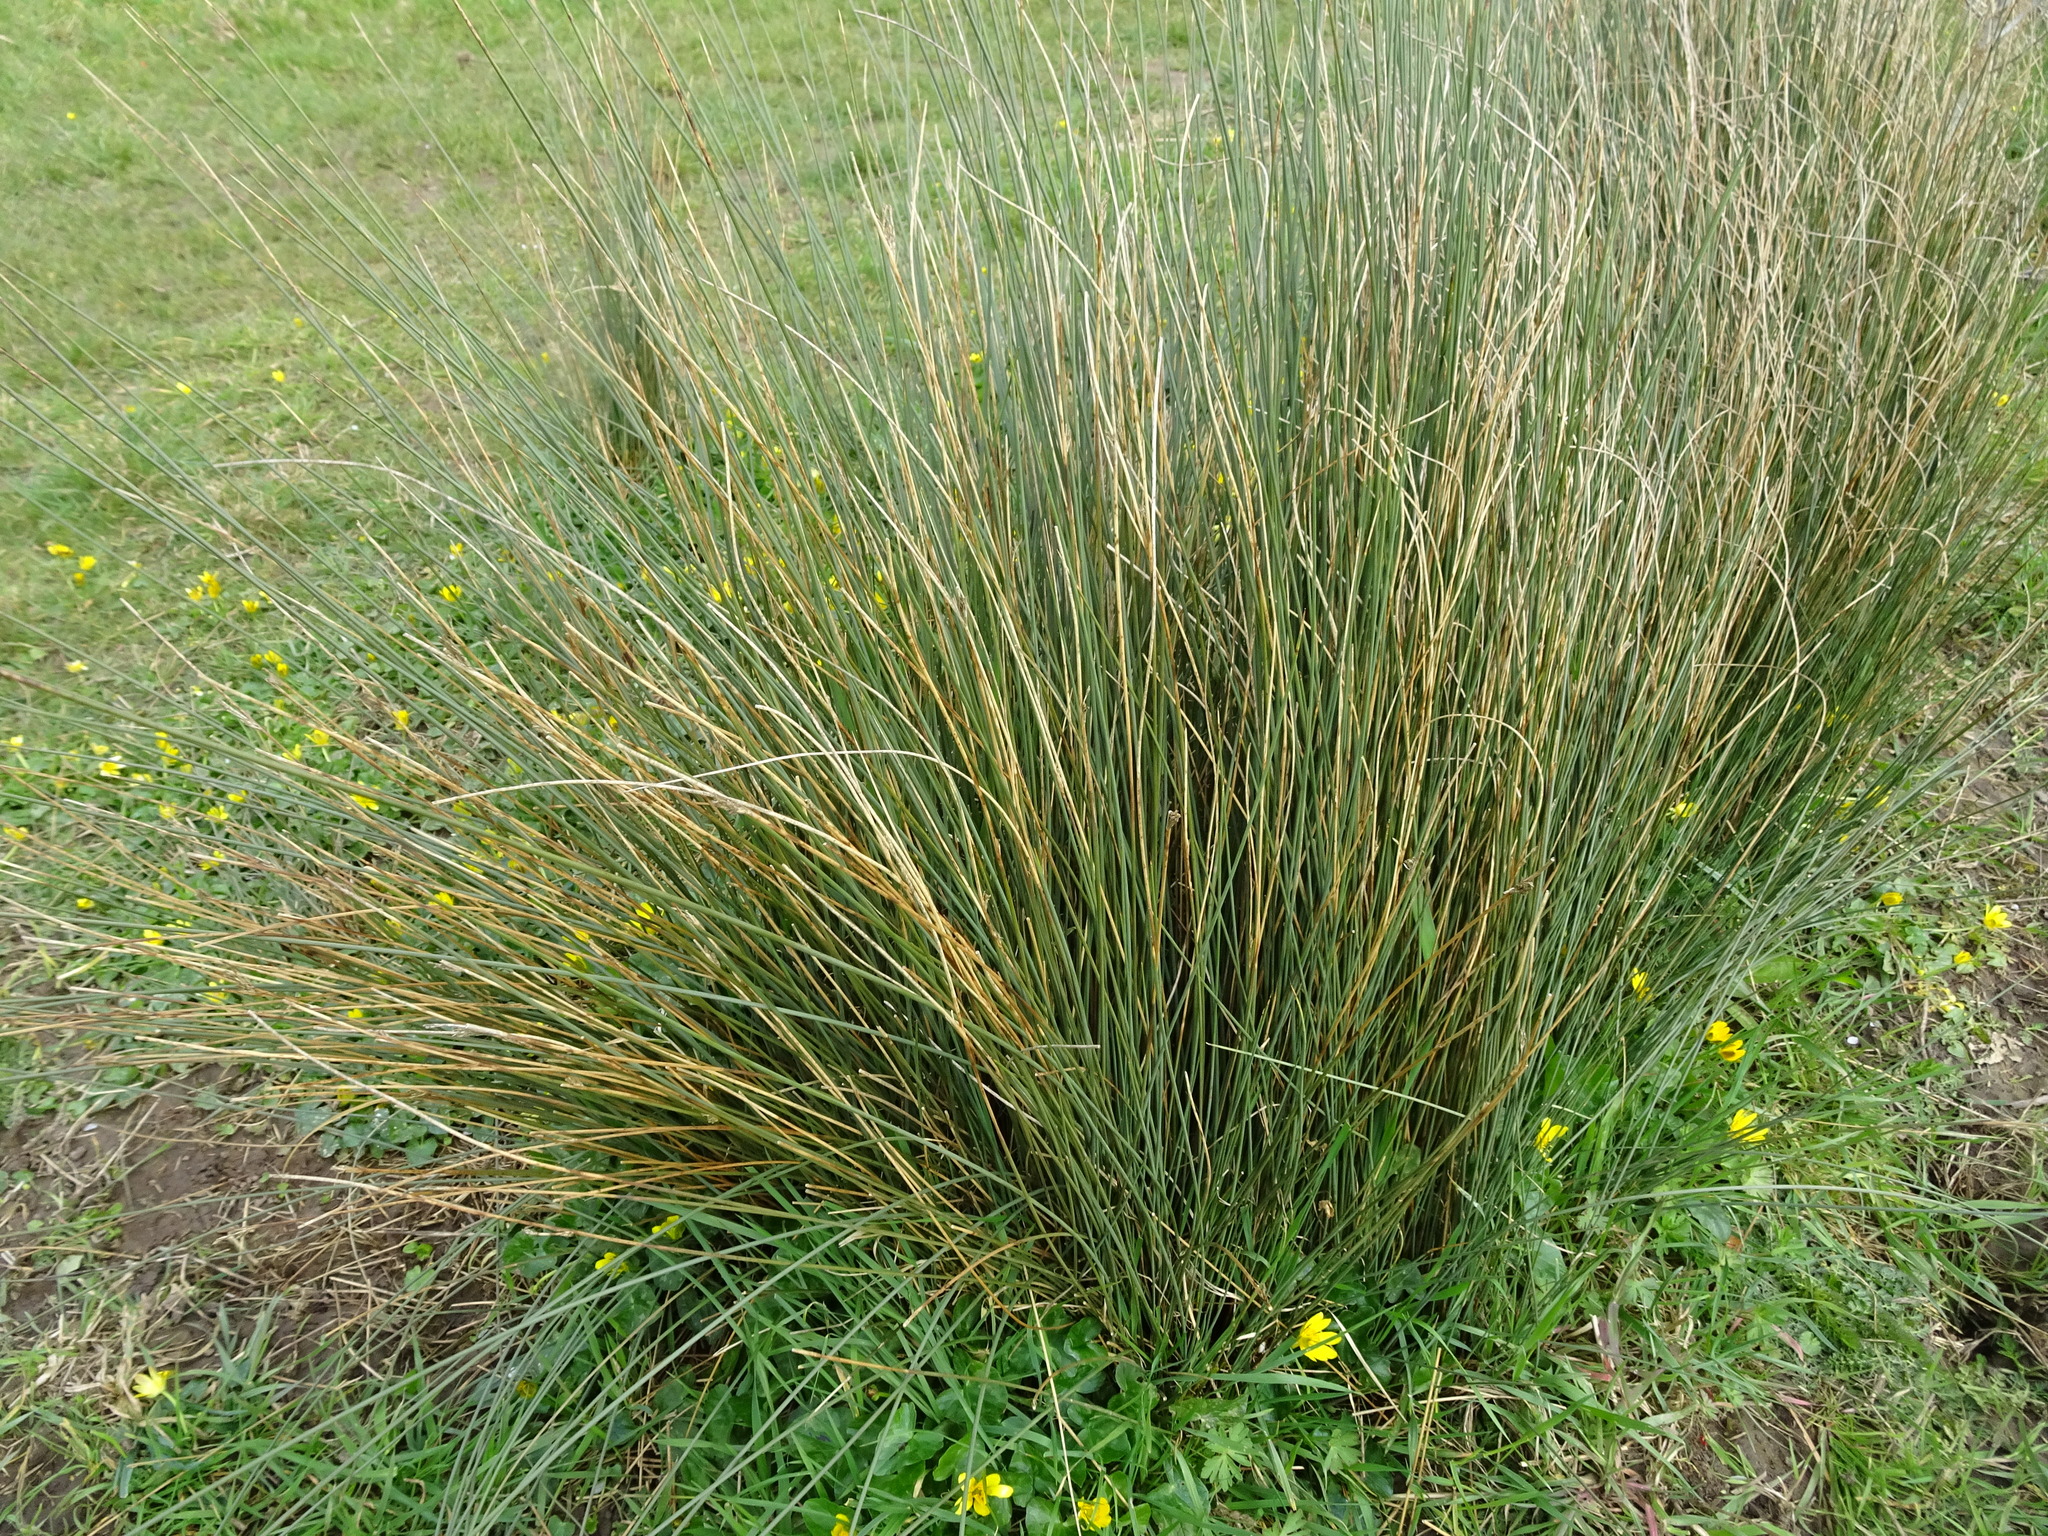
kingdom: Plantae
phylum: Tracheophyta
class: Liliopsida
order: Poales
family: Juncaceae
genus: Juncus
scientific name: Juncus inflexus
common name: Hard rush
